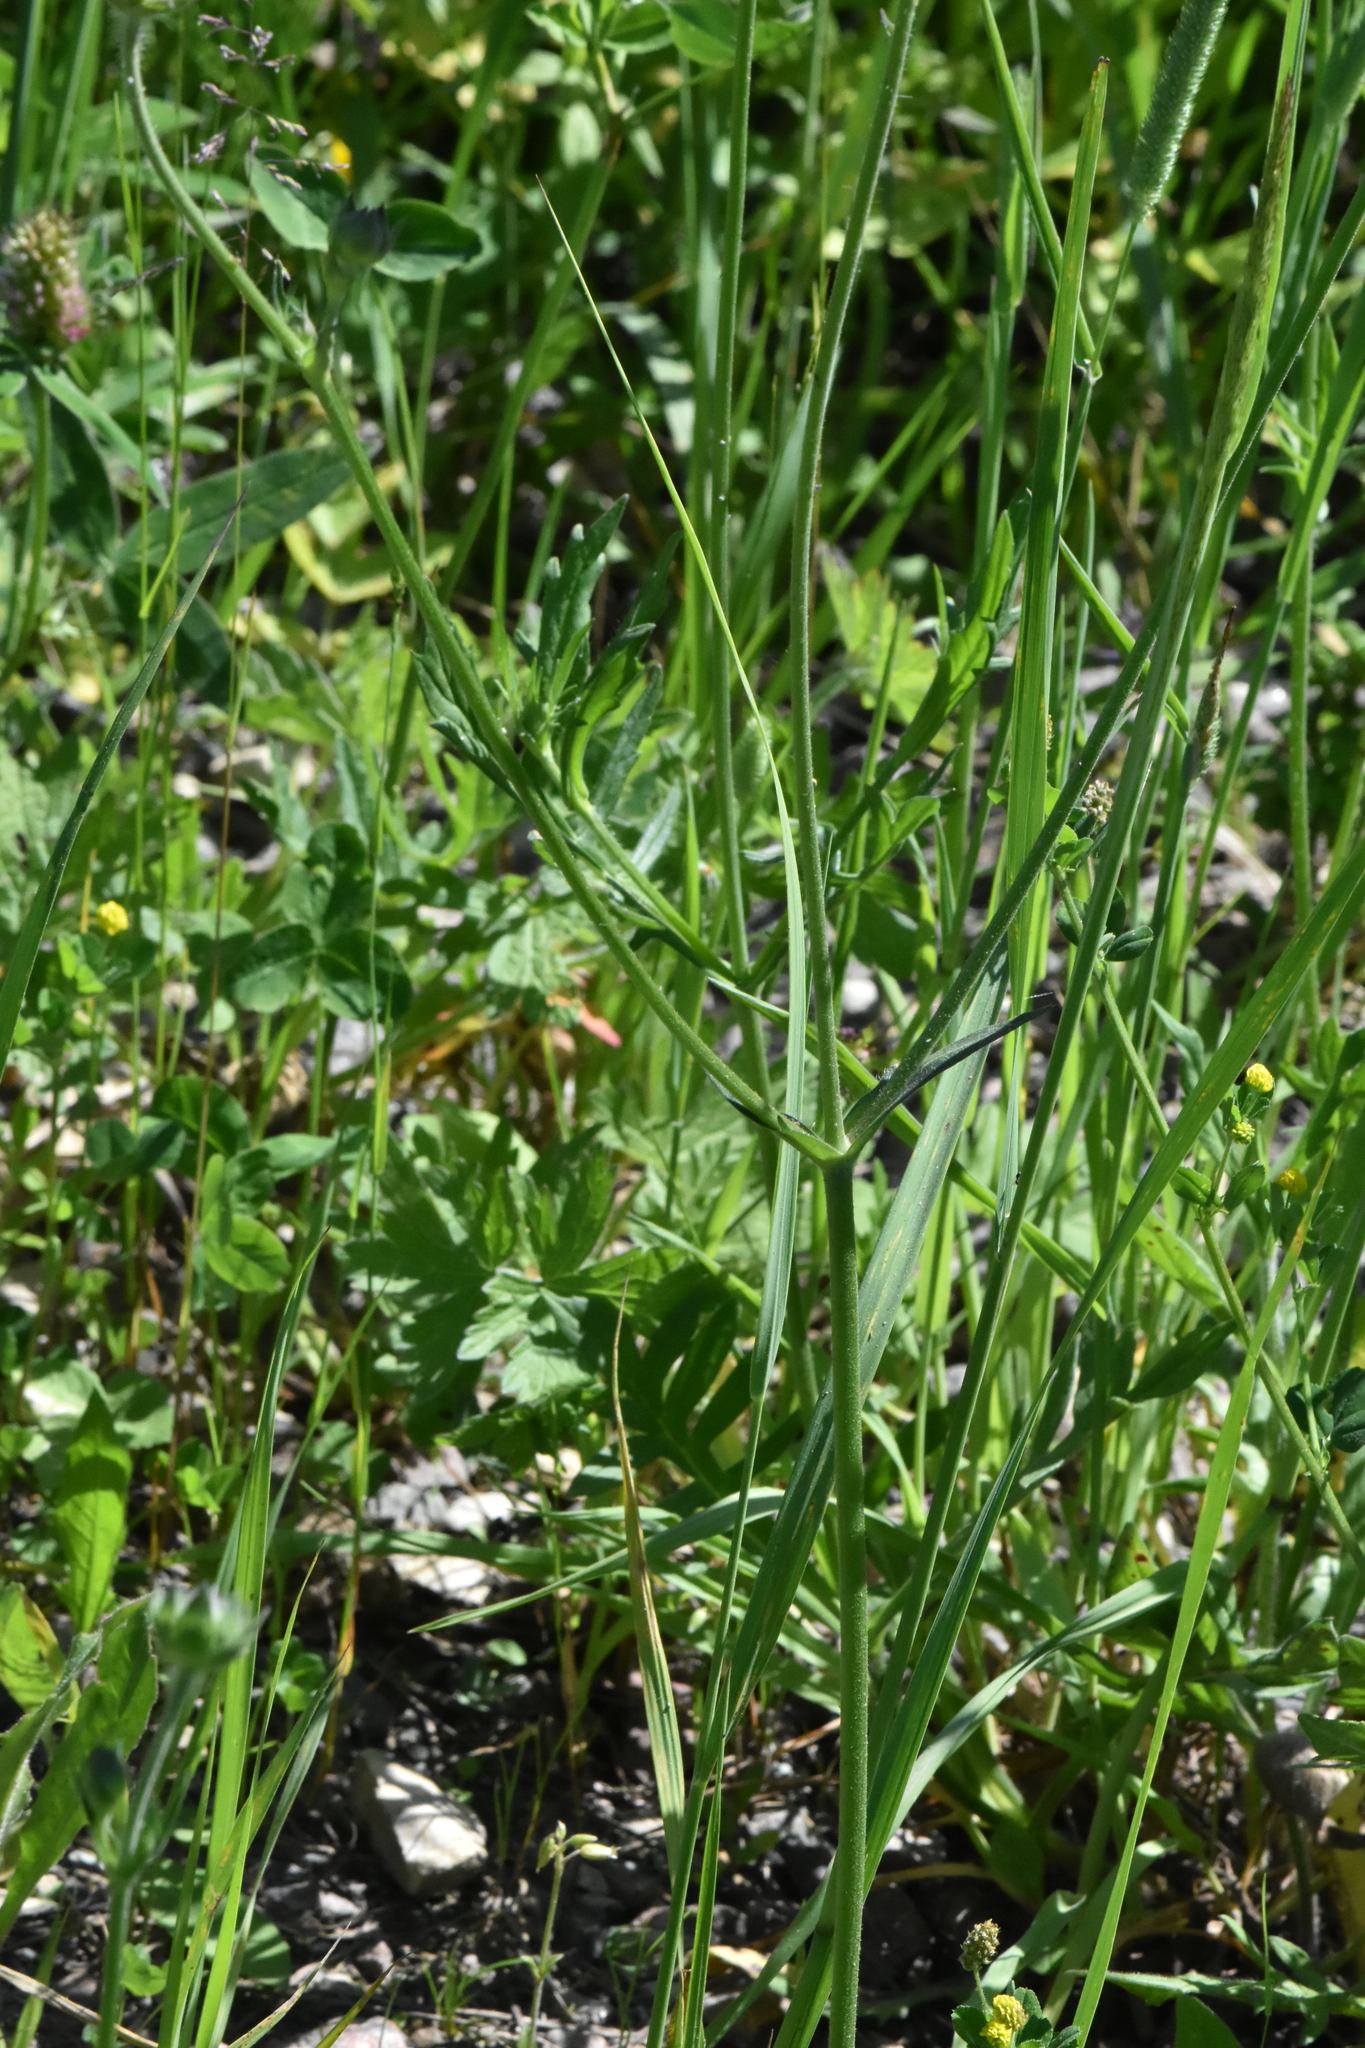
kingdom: Plantae
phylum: Tracheophyta
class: Magnoliopsida
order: Dipsacales
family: Caprifoliaceae
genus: Knautia
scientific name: Knautia arvensis
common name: Field scabiosa
